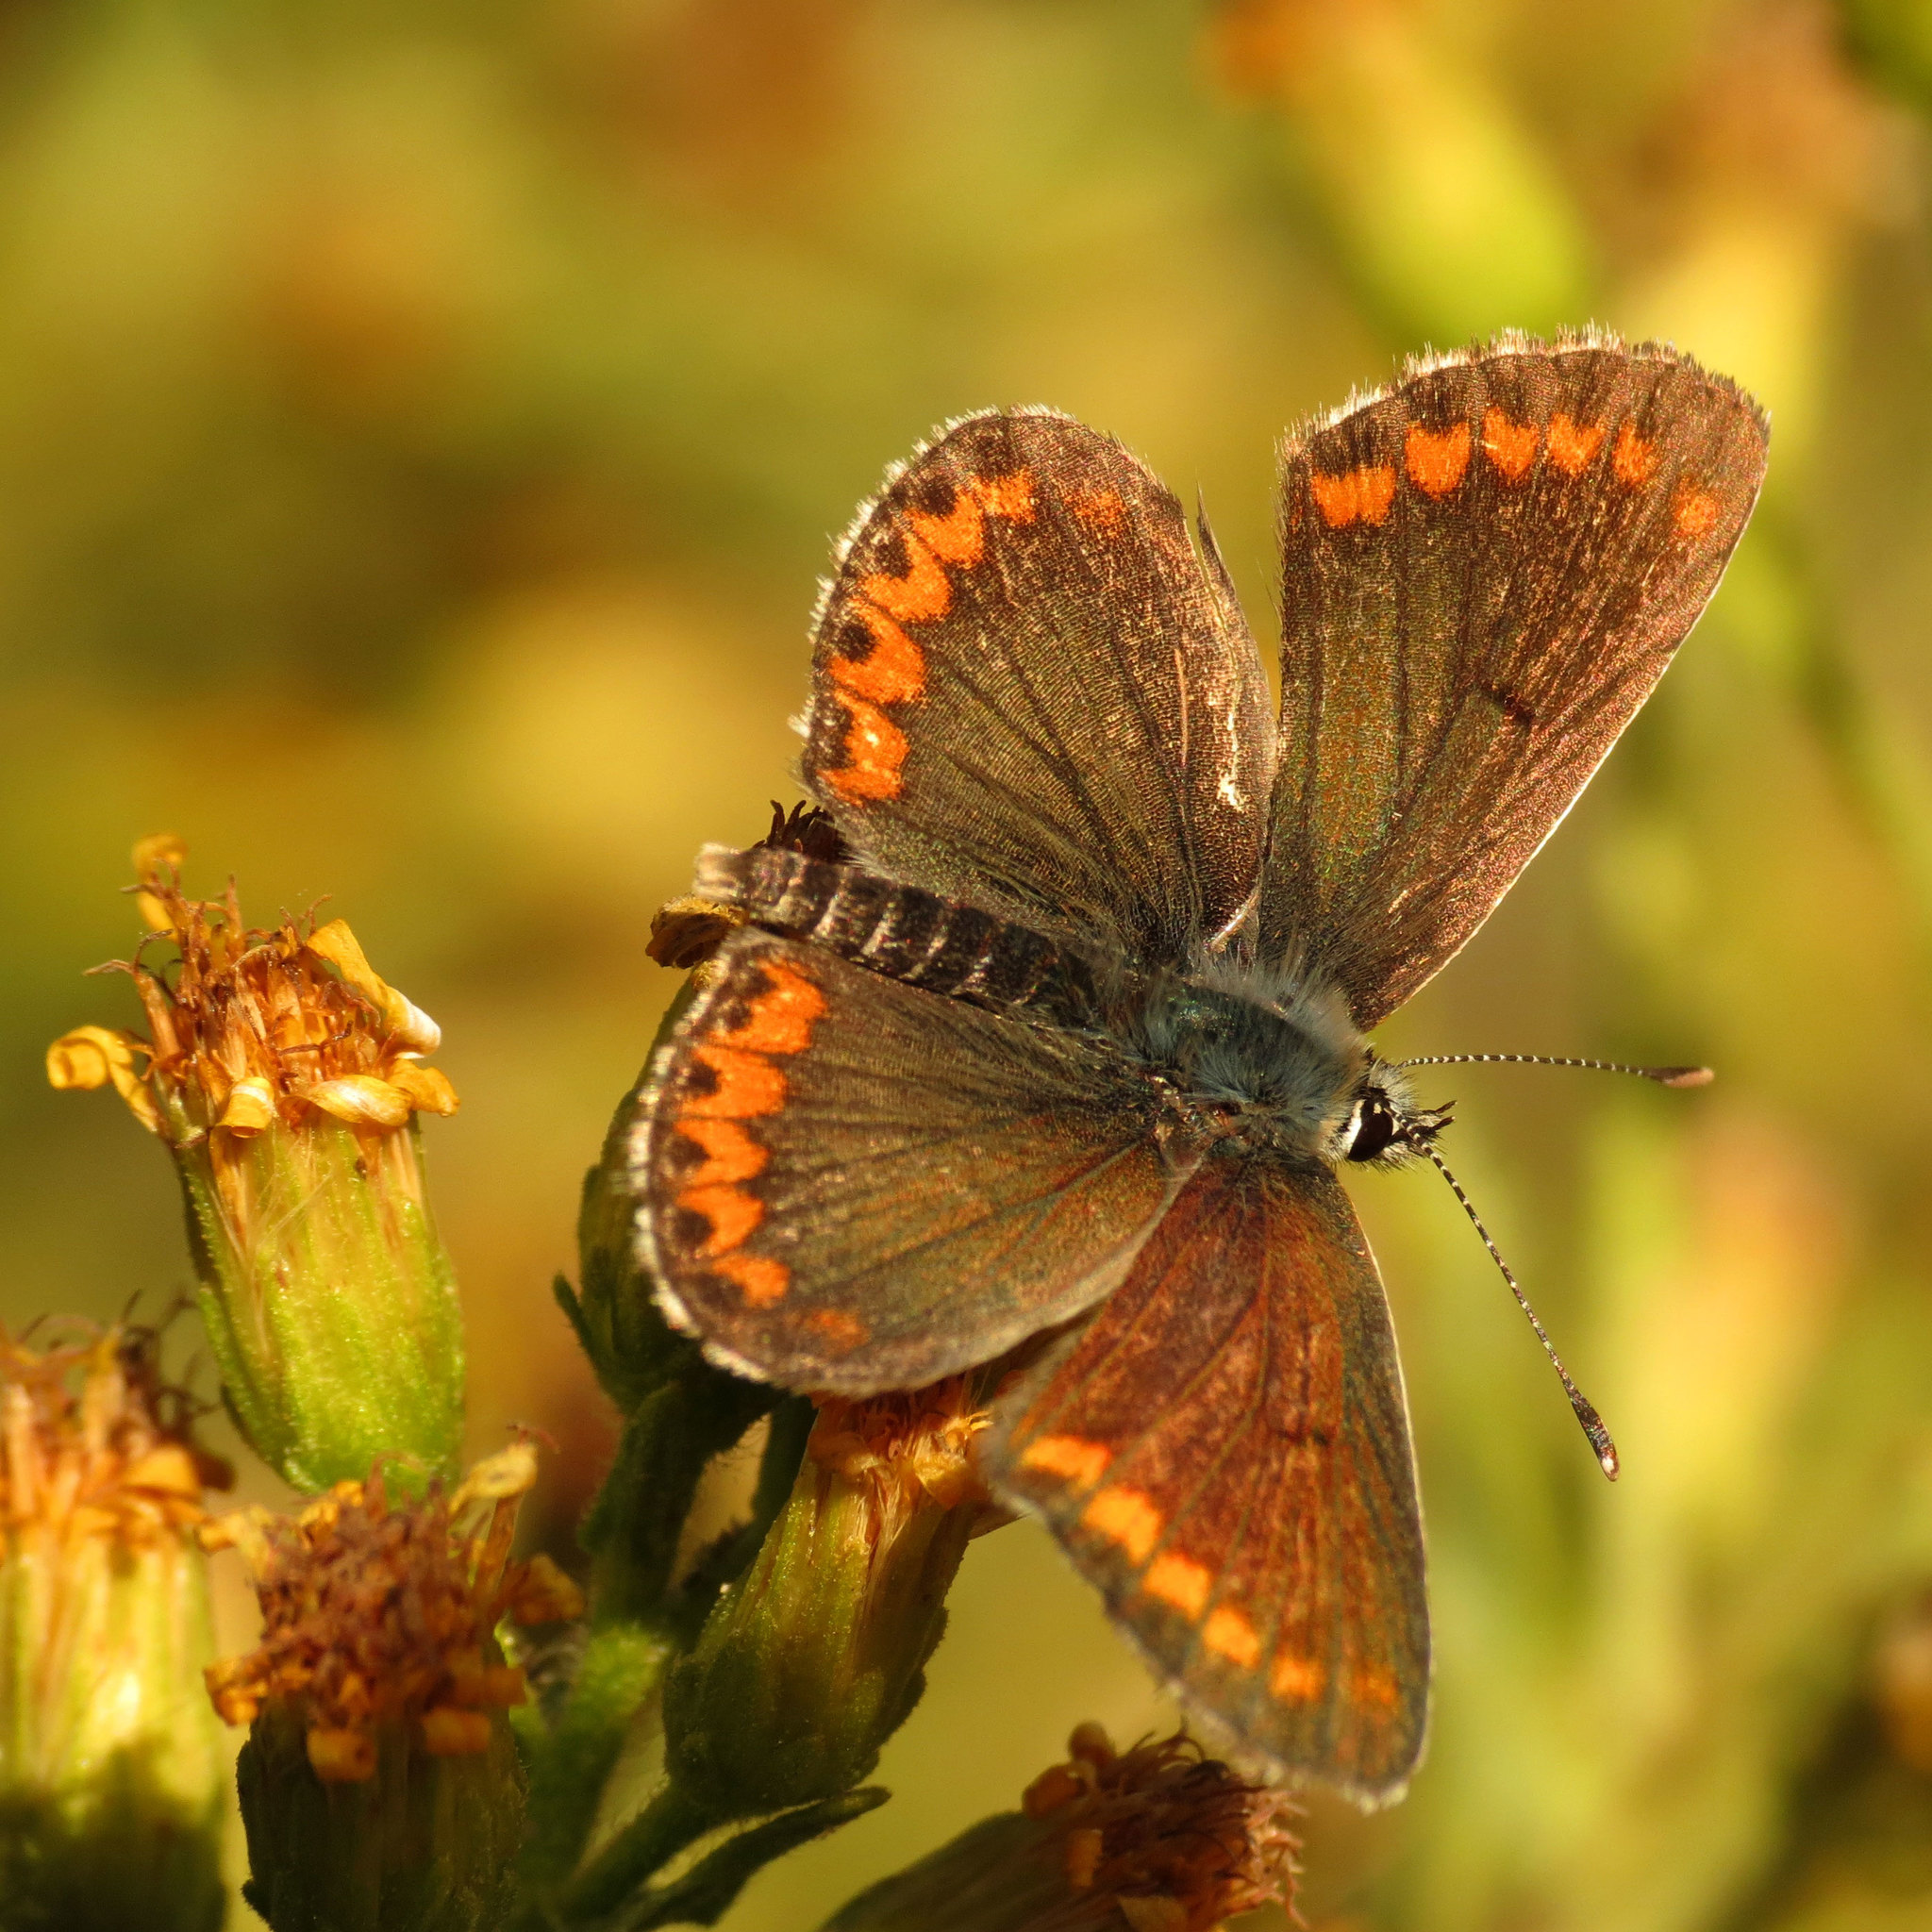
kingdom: Animalia
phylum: Arthropoda
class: Insecta
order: Lepidoptera
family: Lycaenidae
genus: Aricia
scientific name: Aricia cramera
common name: Eschscholtz´s brown  argus
